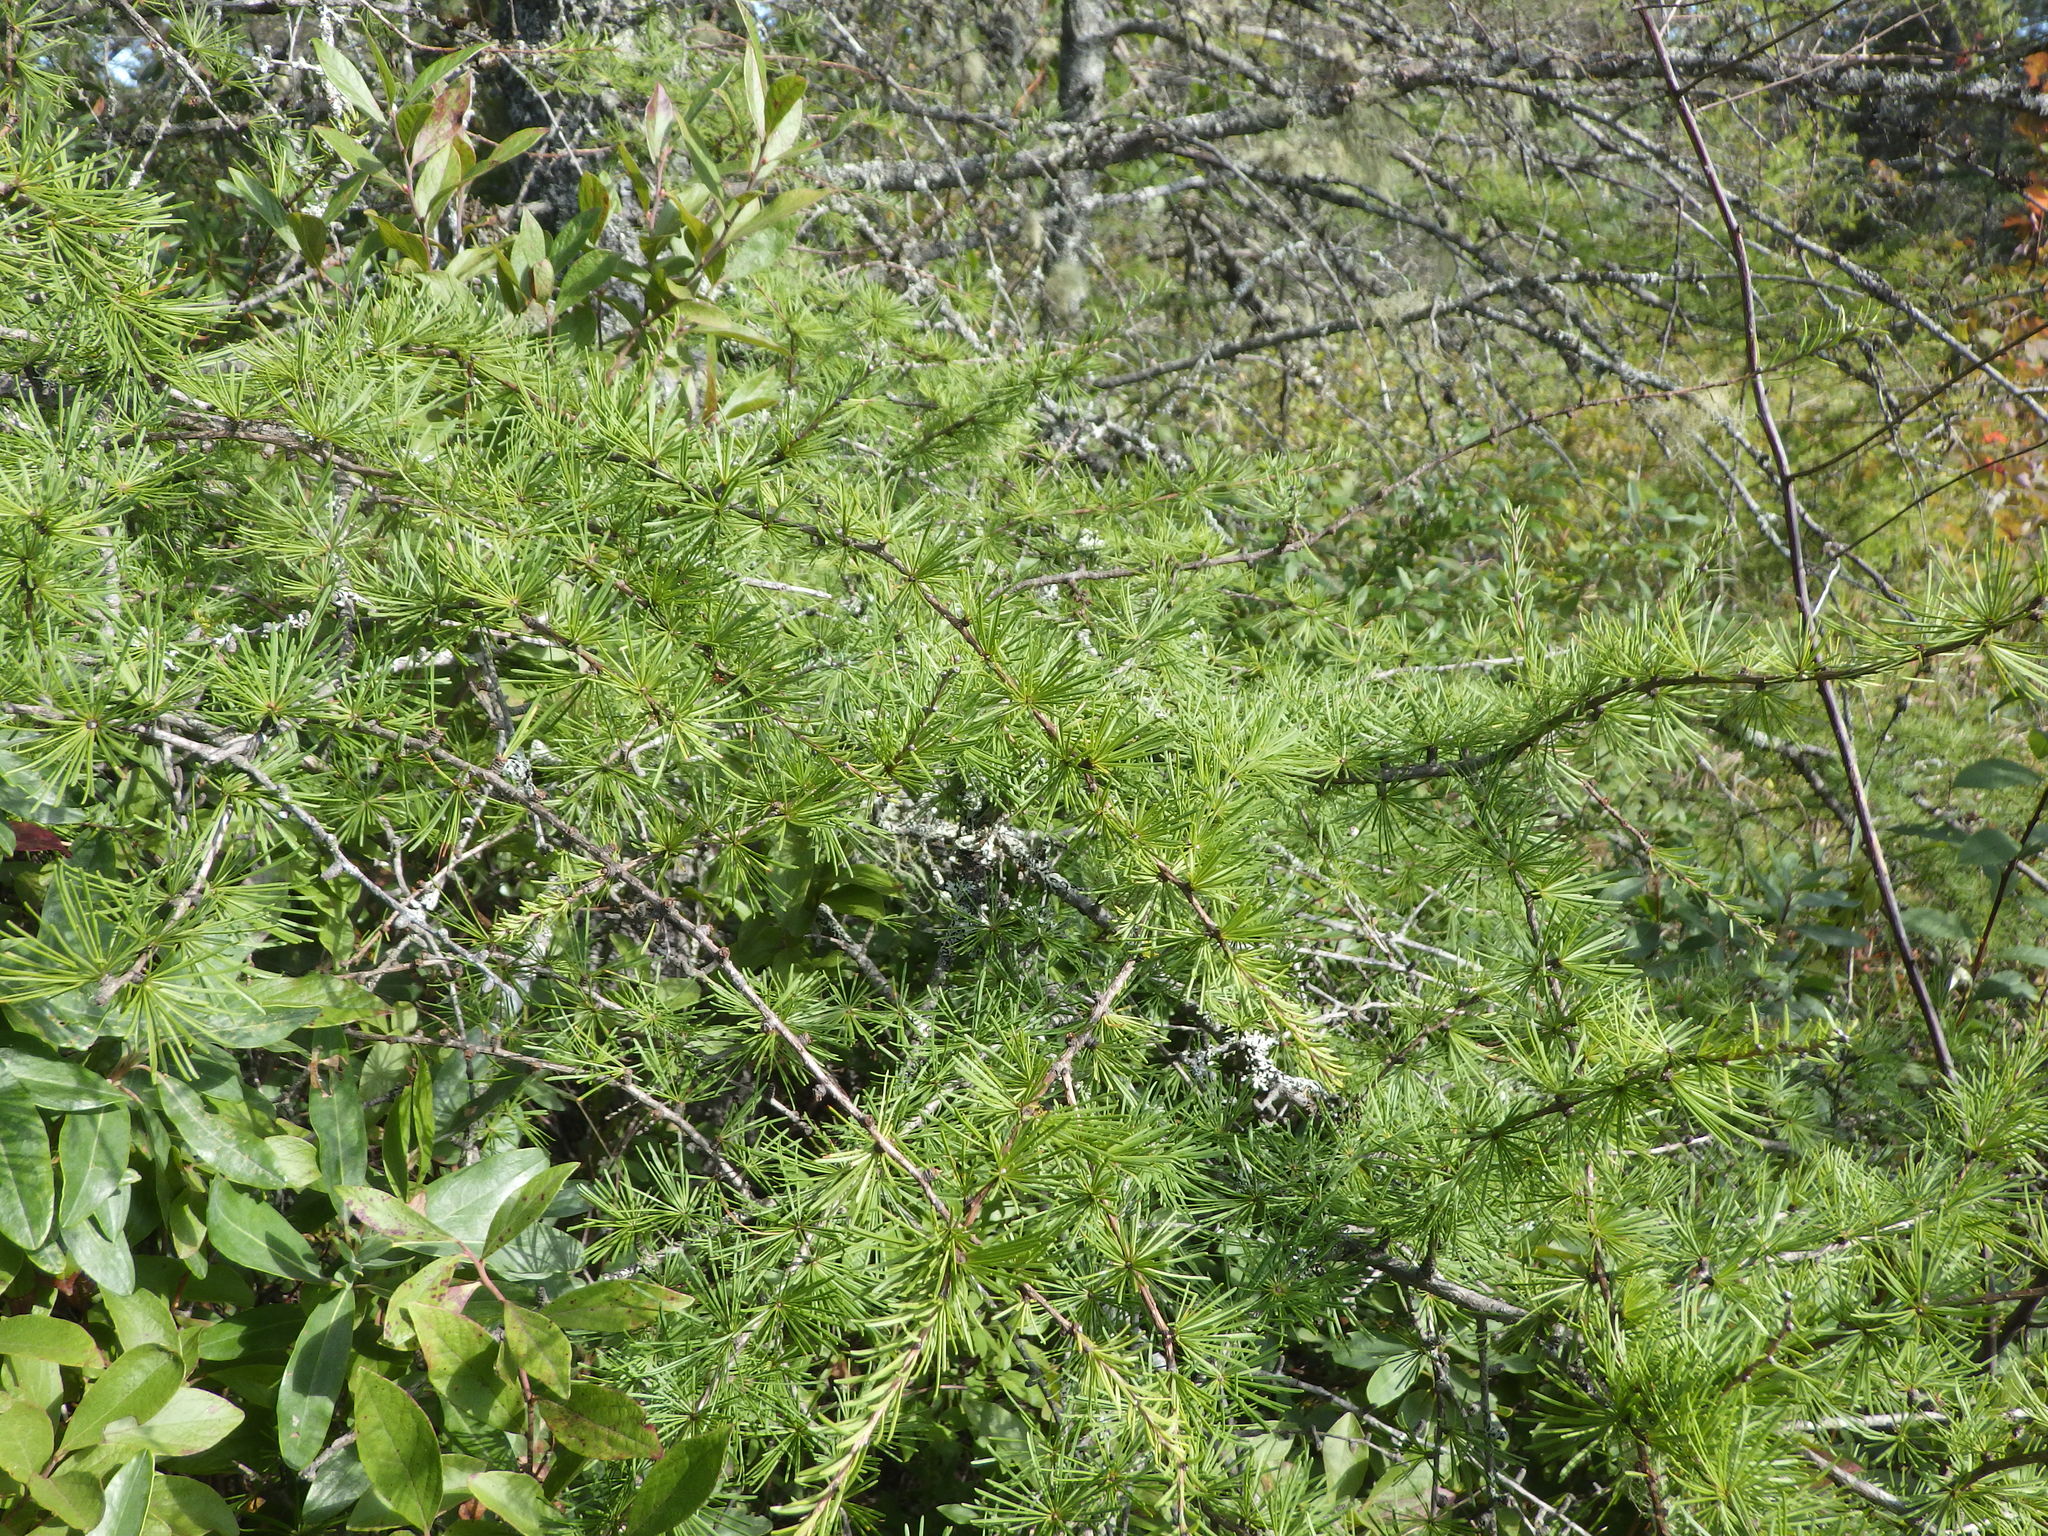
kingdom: Plantae
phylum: Tracheophyta
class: Pinopsida
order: Pinales
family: Pinaceae
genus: Larix
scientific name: Larix laricina
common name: American larch
